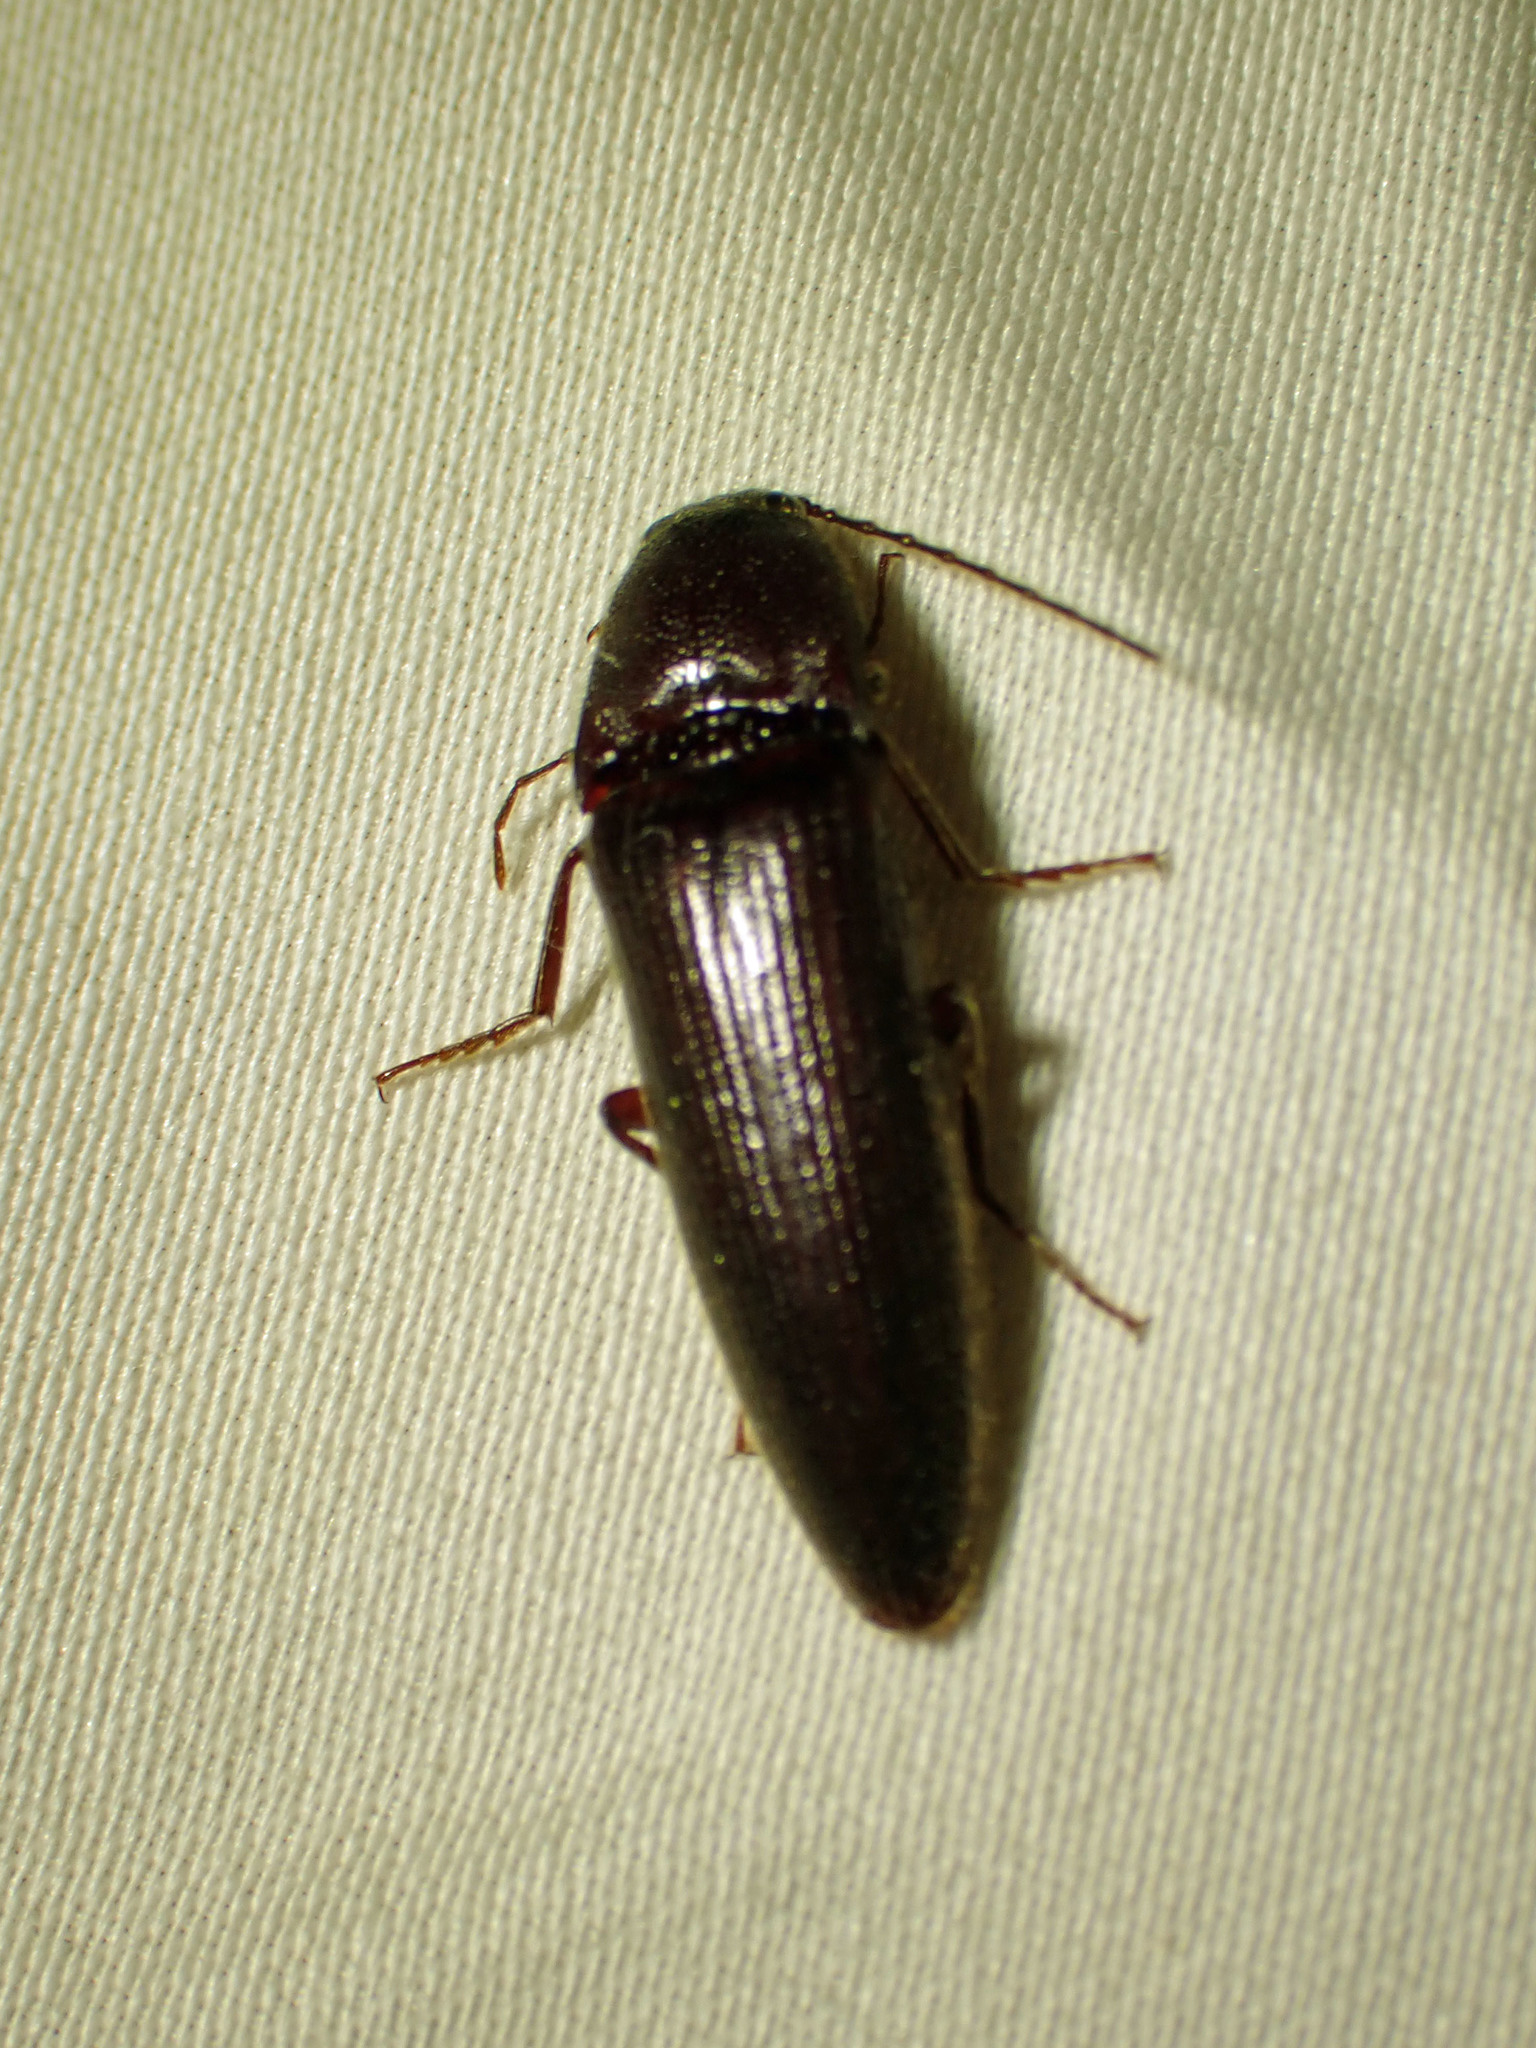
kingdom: Animalia
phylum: Arthropoda
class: Insecta
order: Coleoptera
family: Elateridae
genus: Melanotus
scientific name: Melanotus castanipes
